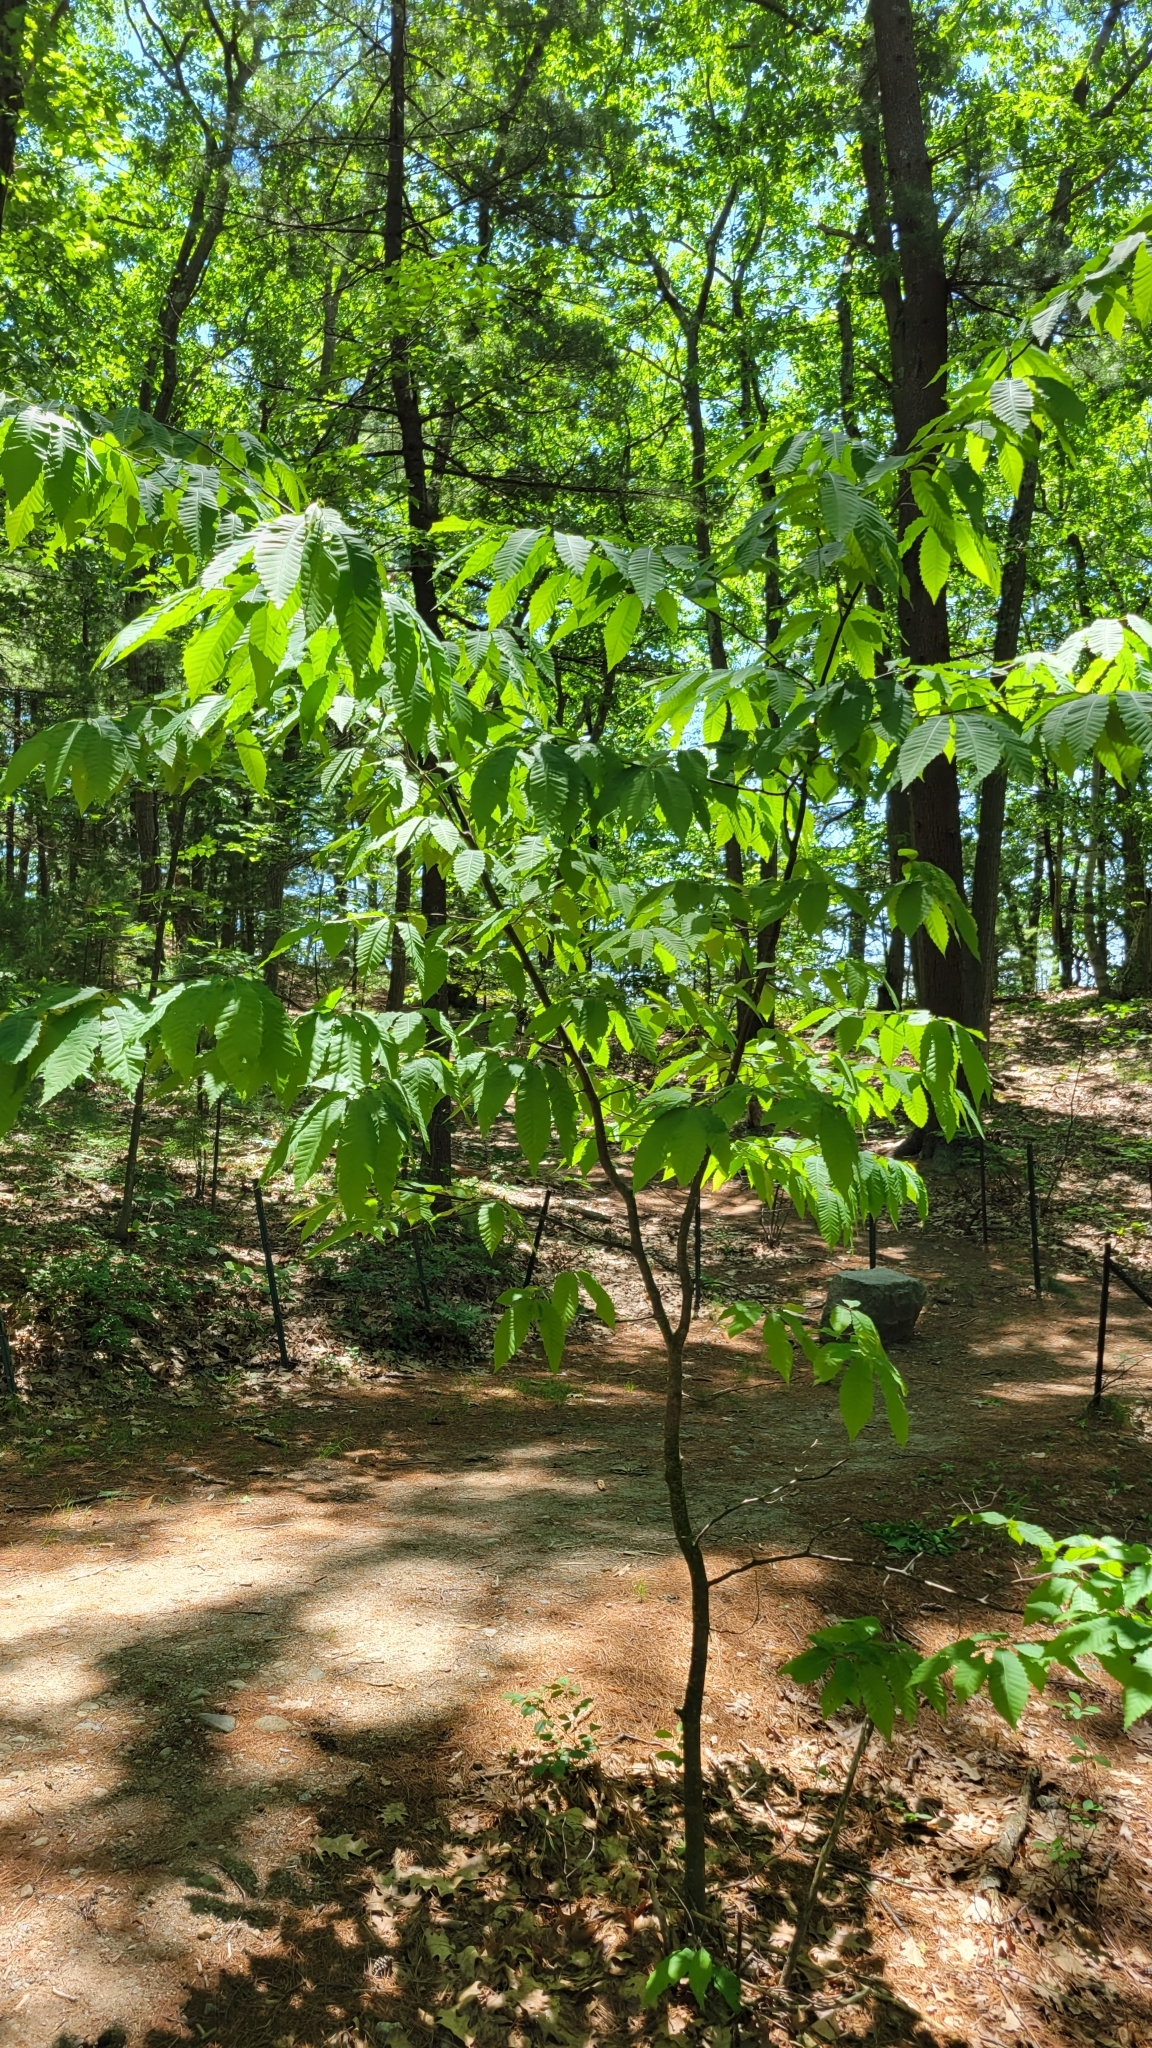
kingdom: Plantae
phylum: Tracheophyta
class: Magnoliopsida
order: Fagales
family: Fagaceae
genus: Castanea
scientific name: Castanea dentata
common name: American chestnut
